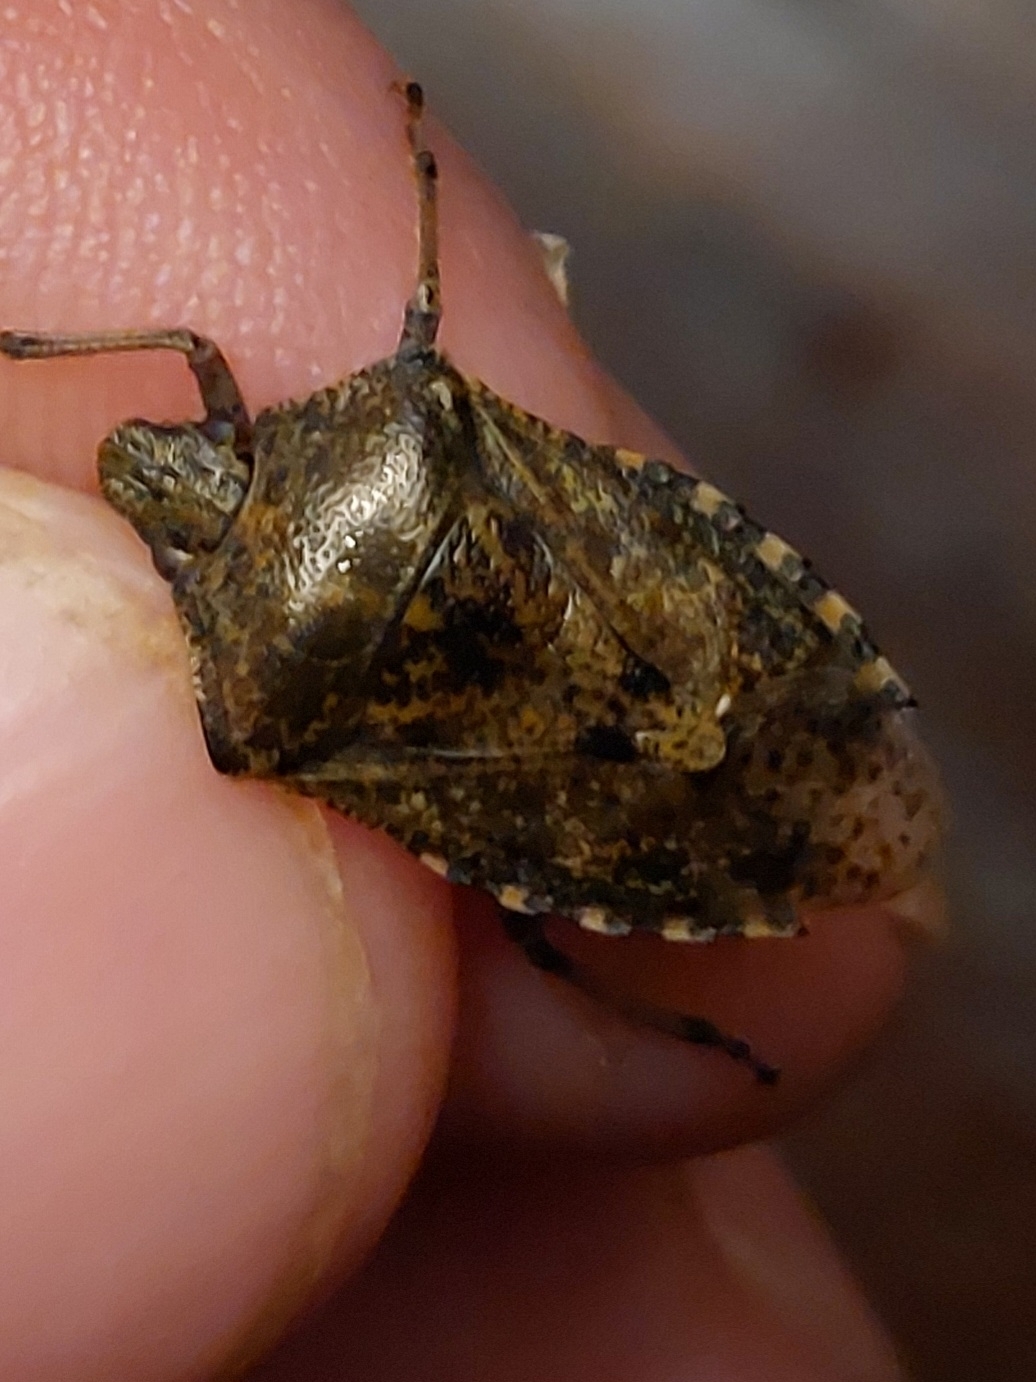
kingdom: Animalia
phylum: Arthropoda
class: Insecta
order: Hemiptera
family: Pentatomidae
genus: Rhaphigaster
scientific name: Rhaphigaster nebulosa
